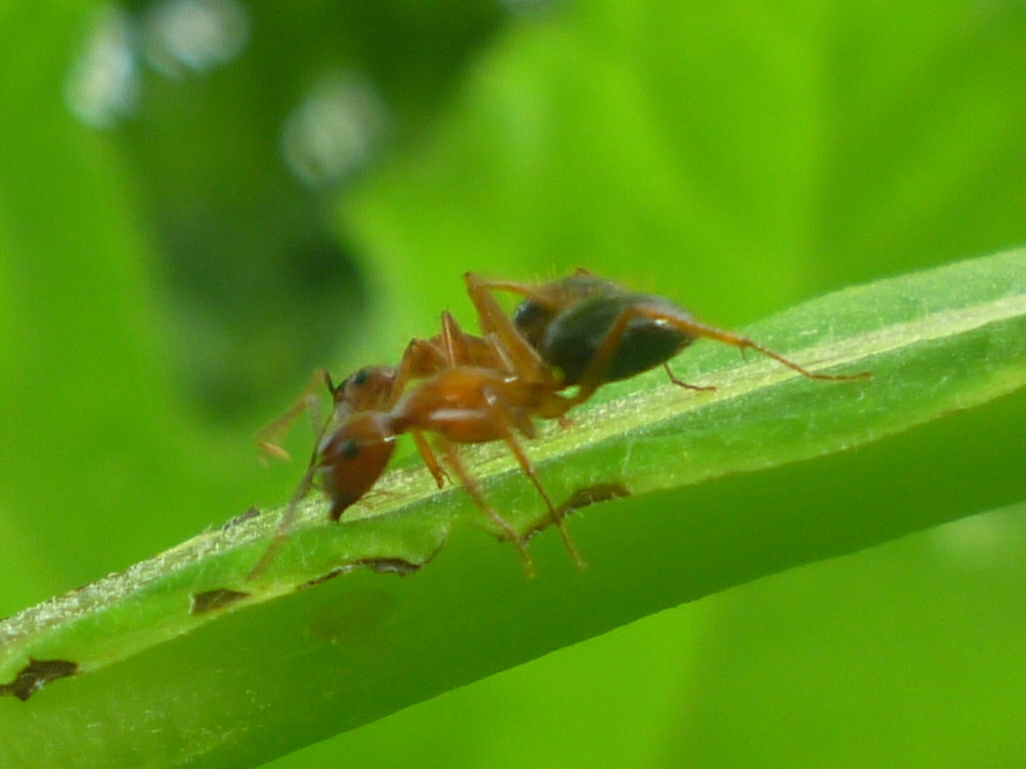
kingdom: Animalia
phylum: Arthropoda
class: Insecta
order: Hymenoptera
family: Formicidae
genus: Camponotus
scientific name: Camponotus floridanus
